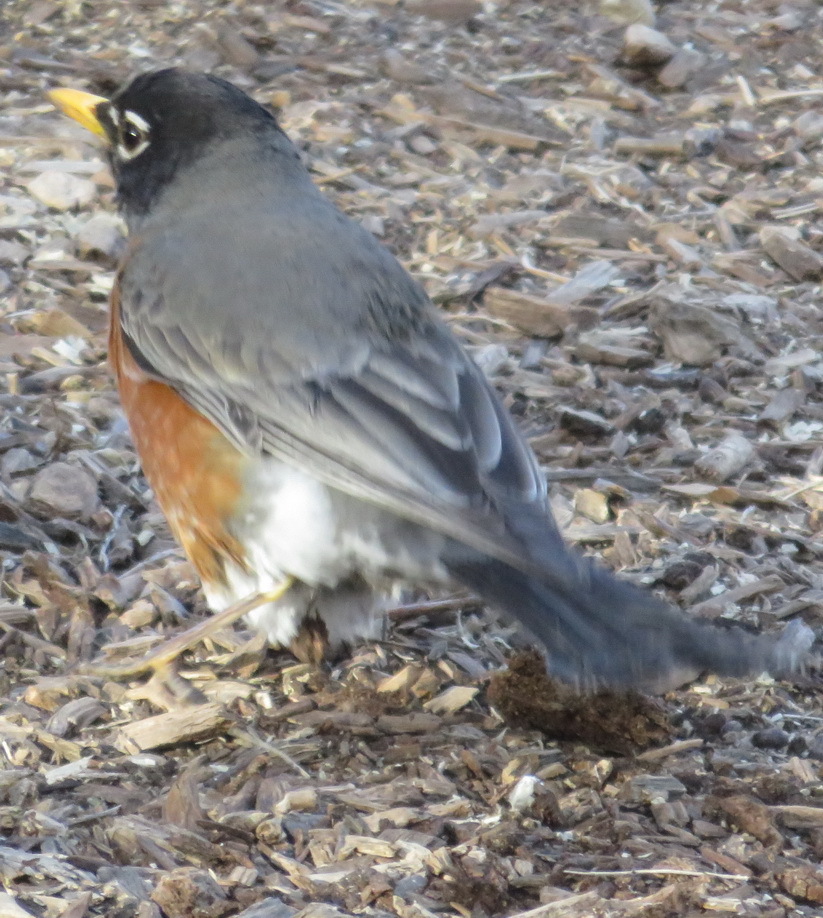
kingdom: Animalia
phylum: Chordata
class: Aves
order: Passeriformes
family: Turdidae
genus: Turdus
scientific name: Turdus migratorius
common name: American robin
